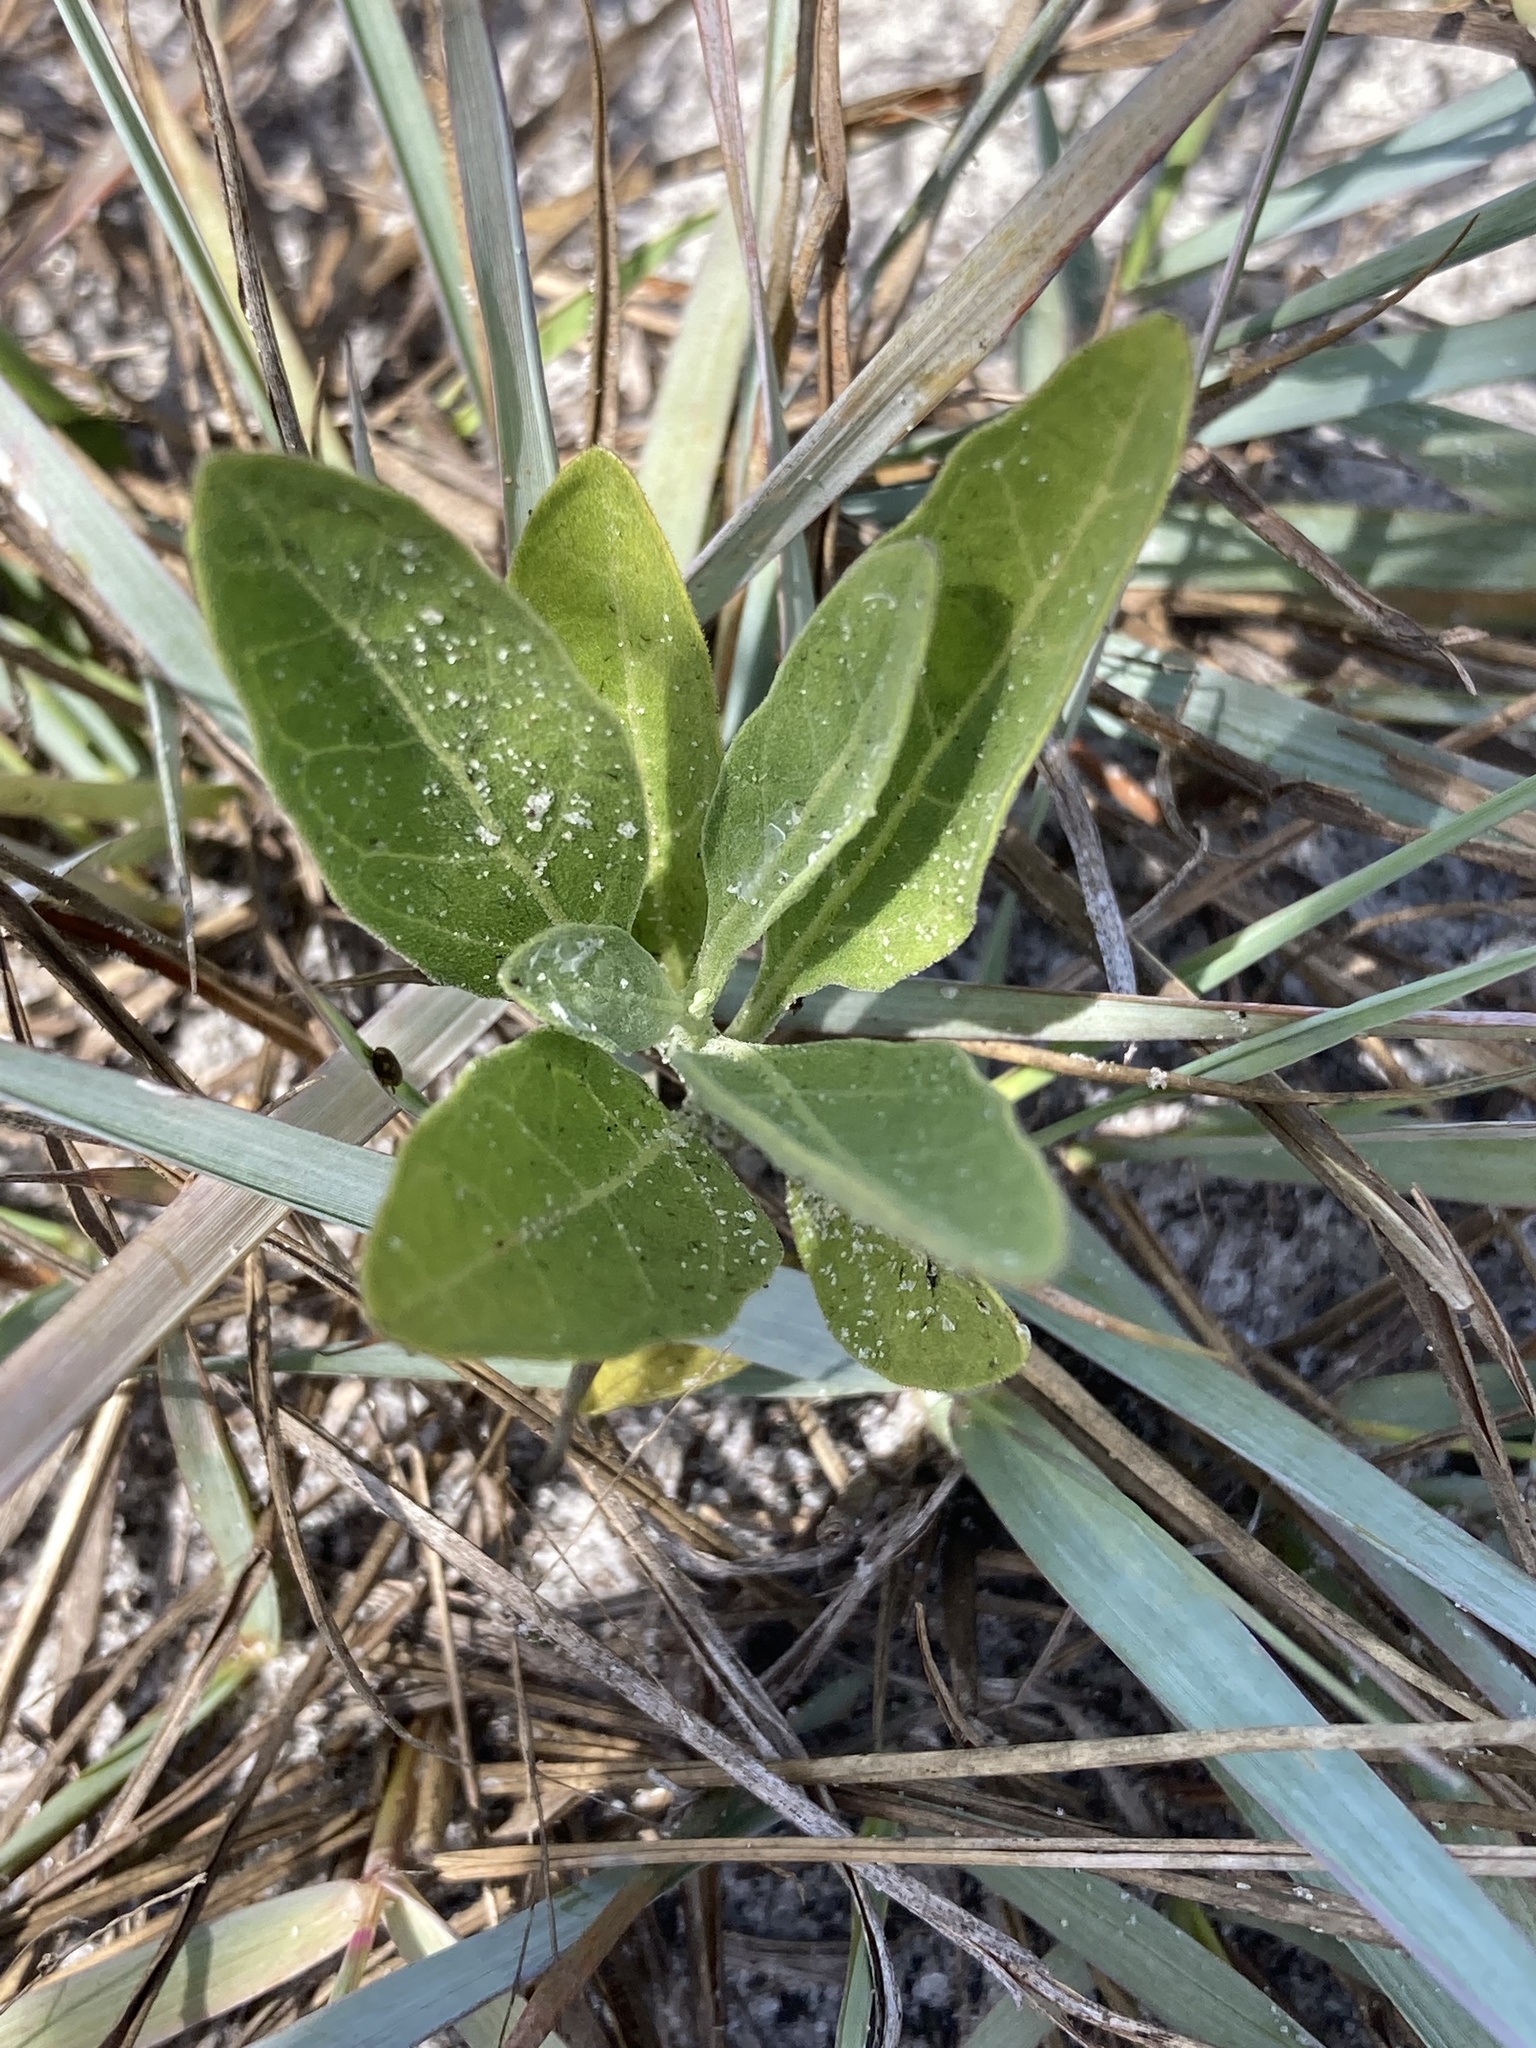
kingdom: Plantae
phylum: Tracheophyta
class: Magnoliopsida
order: Solanales
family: Solanaceae
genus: Physalis
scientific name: Physalis walteri
